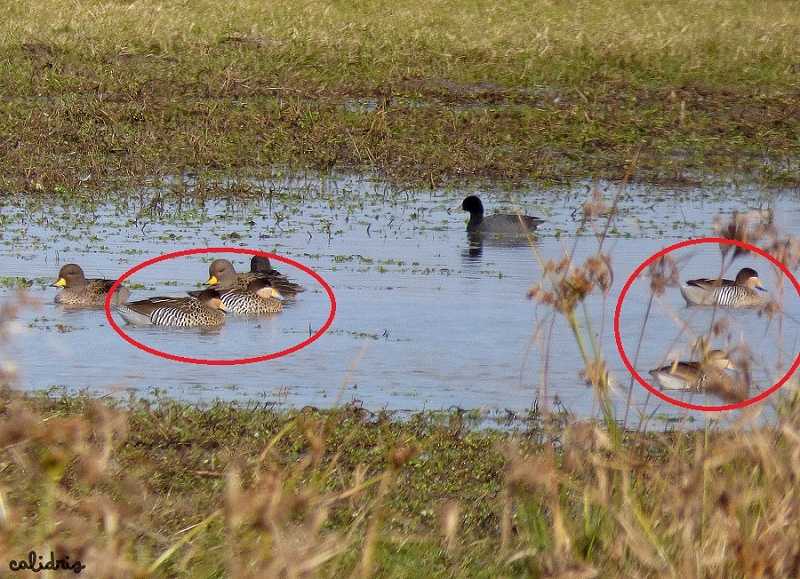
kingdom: Animalia
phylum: Chordata
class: Aves
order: Anseriformes
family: Anatidae
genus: Spatula
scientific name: Spatula versicolor
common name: Silver teal
